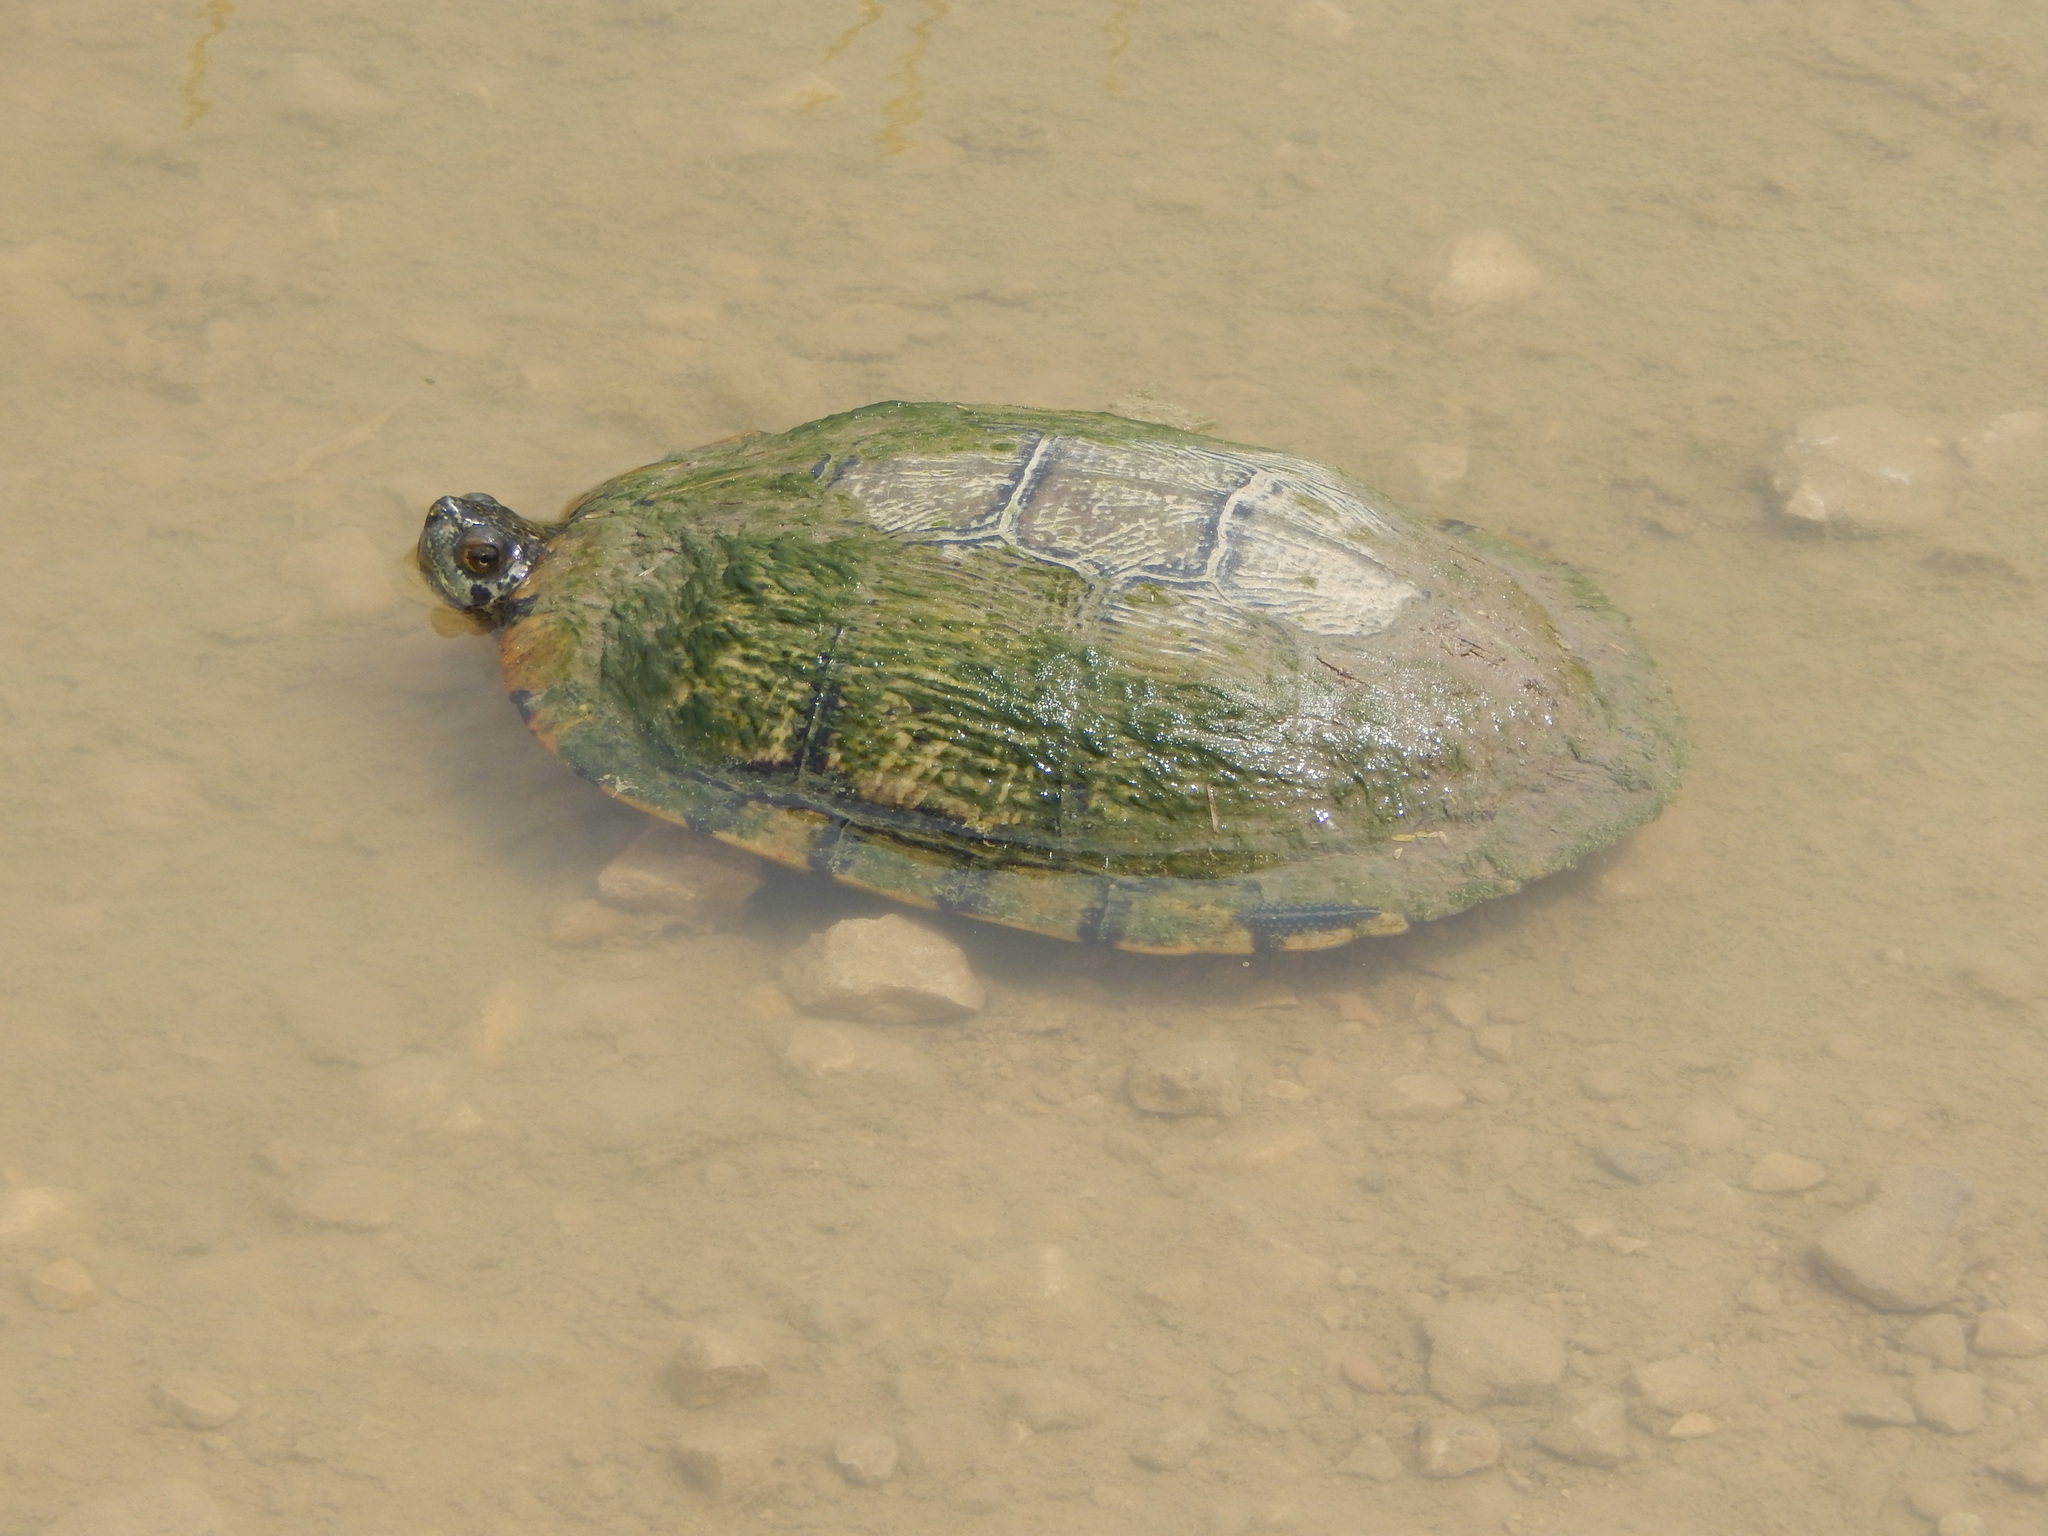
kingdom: Animalia
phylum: Chordata
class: Testudines
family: Emydidae
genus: Trachemys
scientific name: Trachemys scripta
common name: Slider
